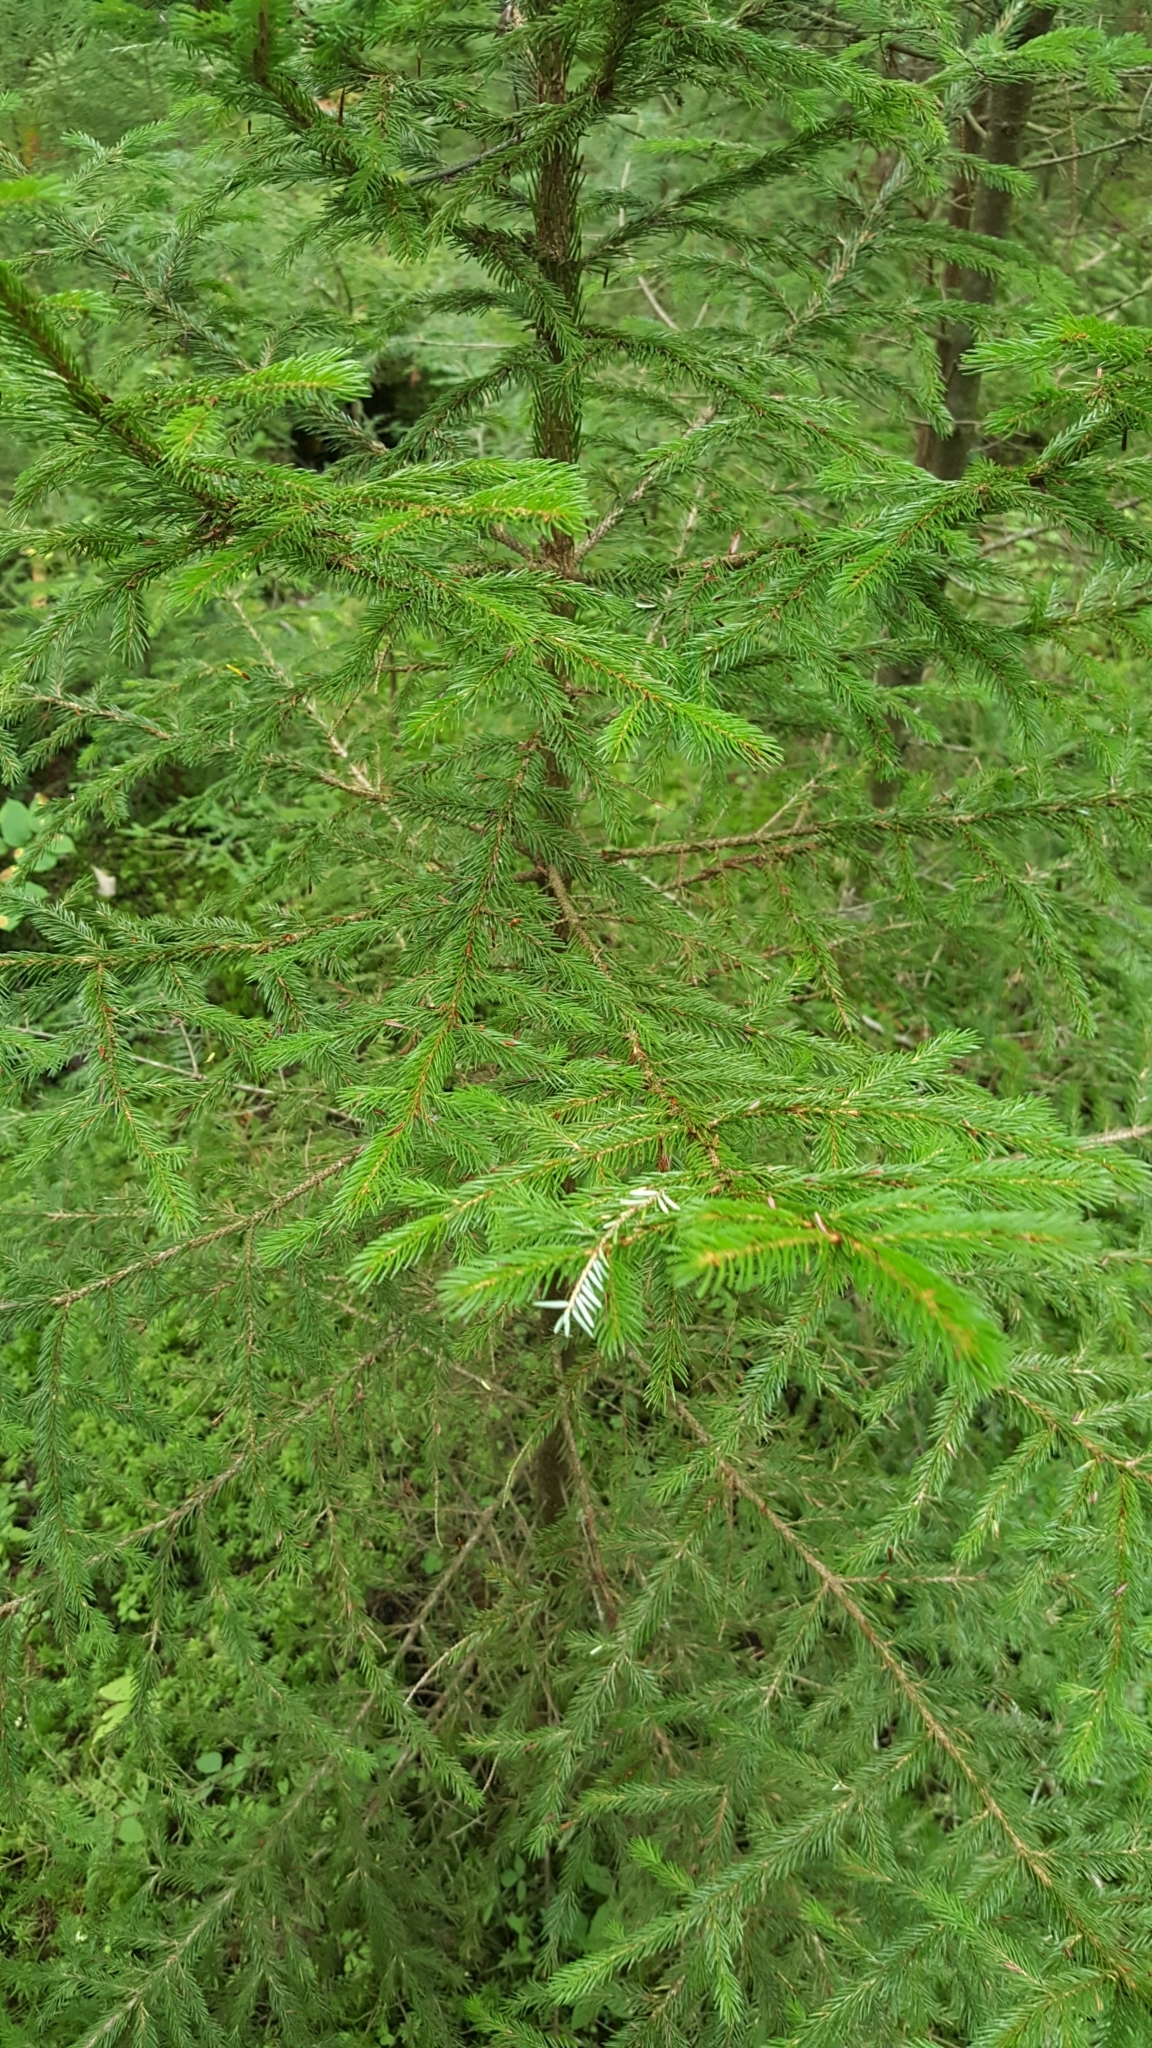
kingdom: Plantae
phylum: Tracheophyta
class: Pinopsida
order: Pinales
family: Pinaceae
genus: Picea
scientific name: Picea rubens
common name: Red spruce
